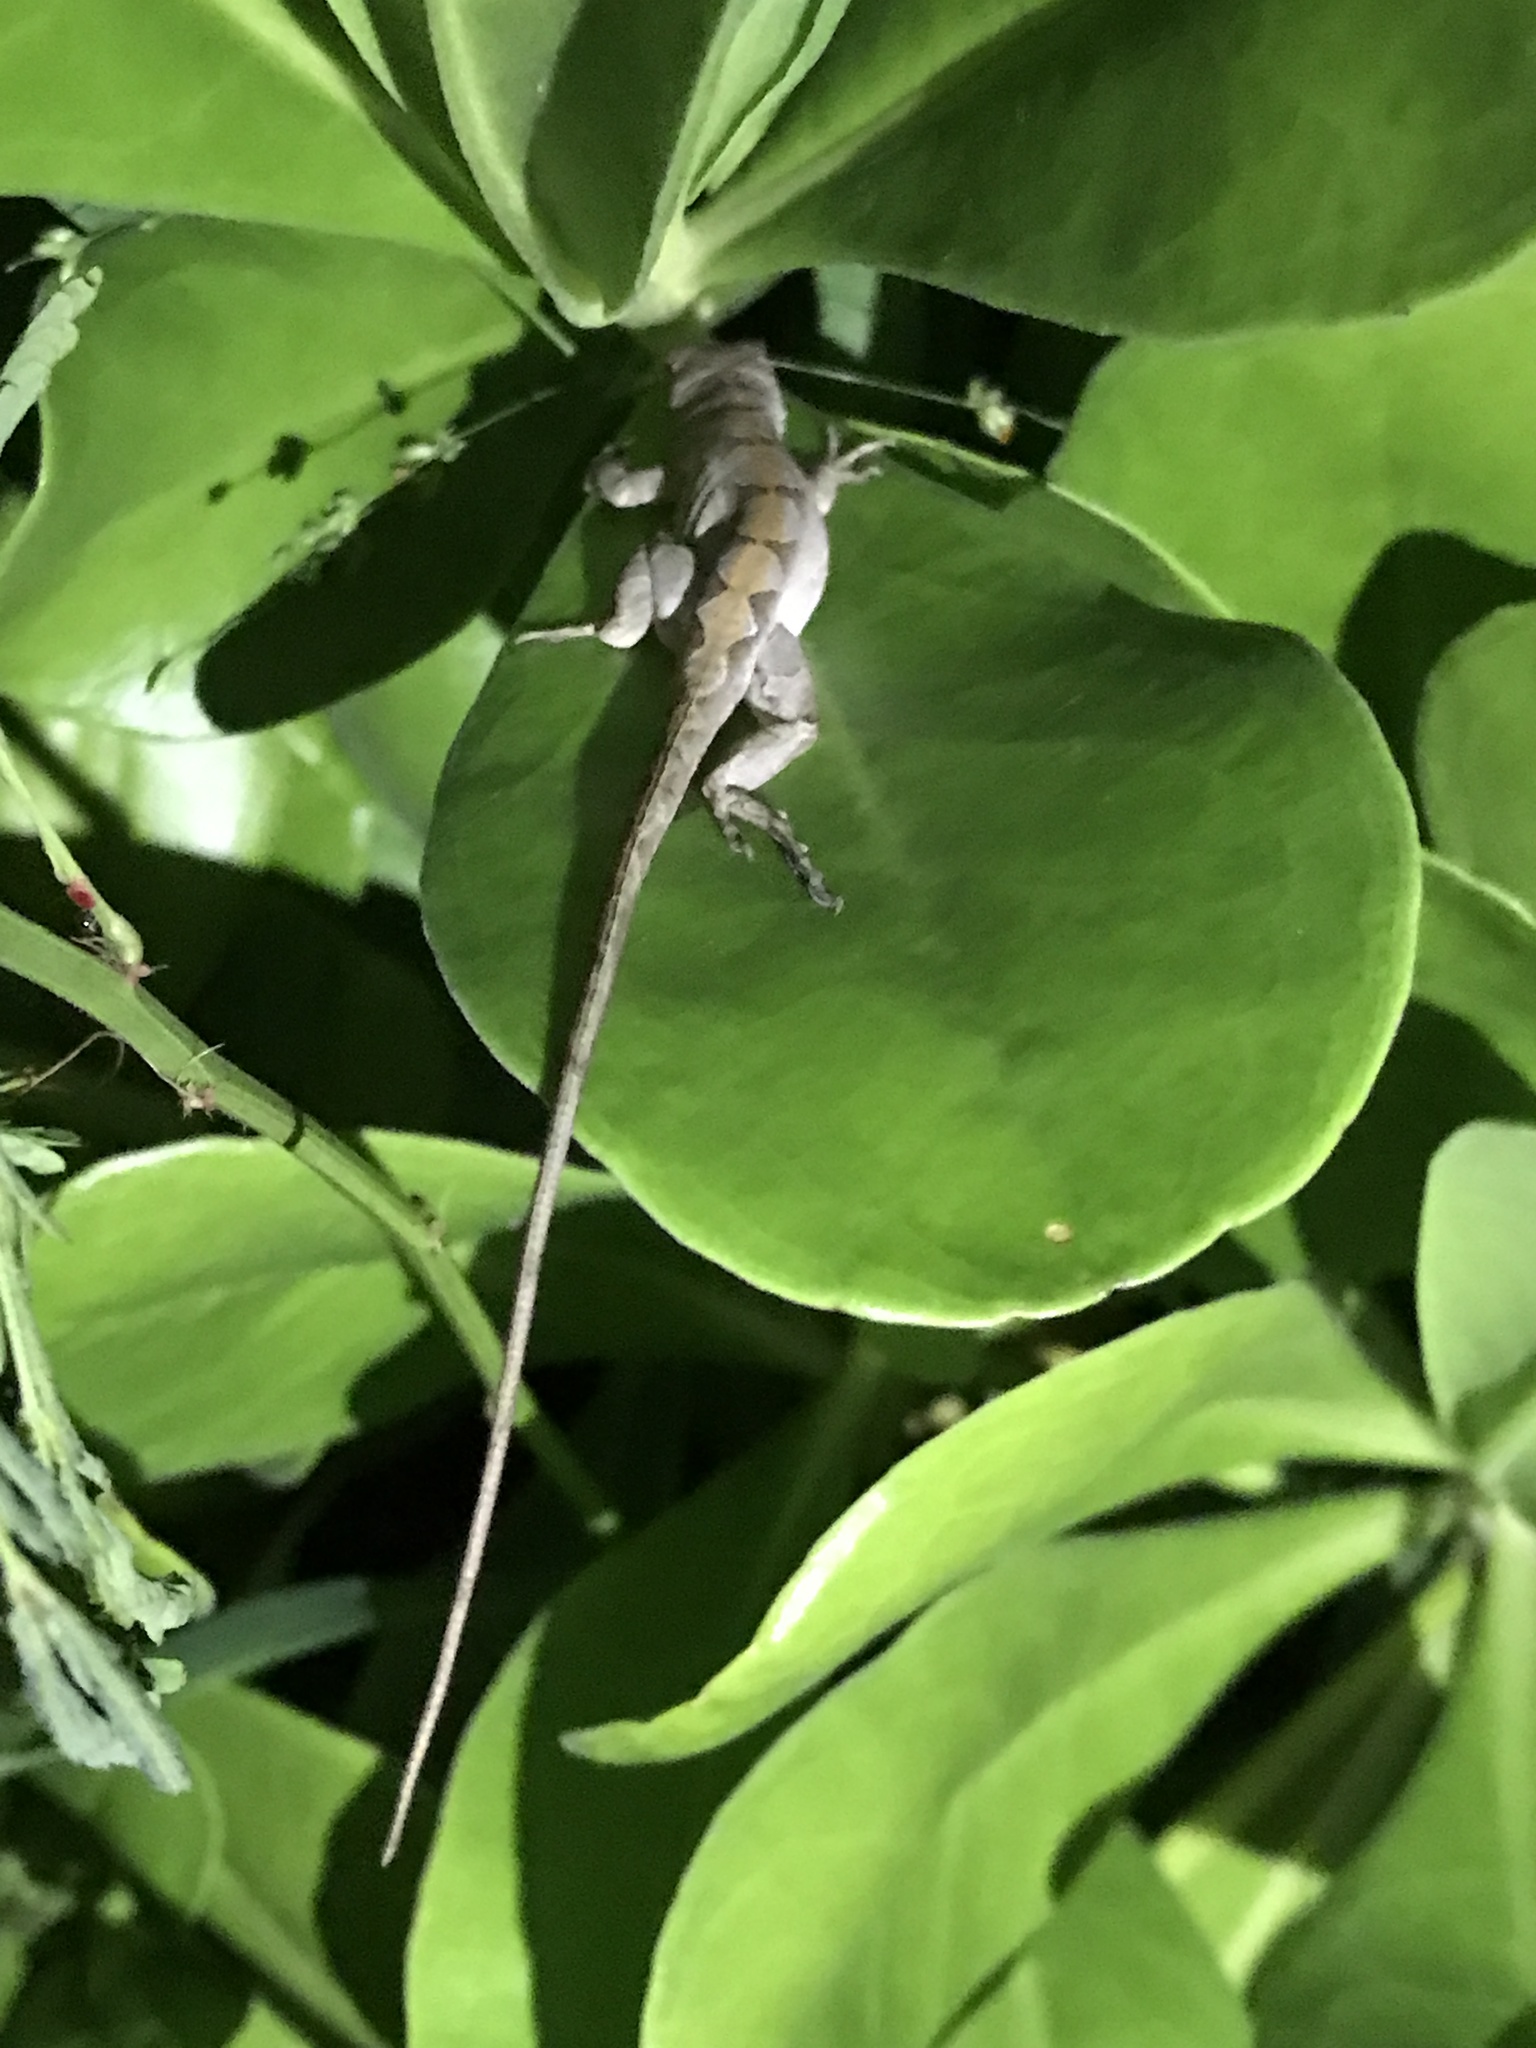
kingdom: Animalia
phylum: Chordata
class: Squamata
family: Dactyloidae
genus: Anolis
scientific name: Anolis sagrei
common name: Brown anole
